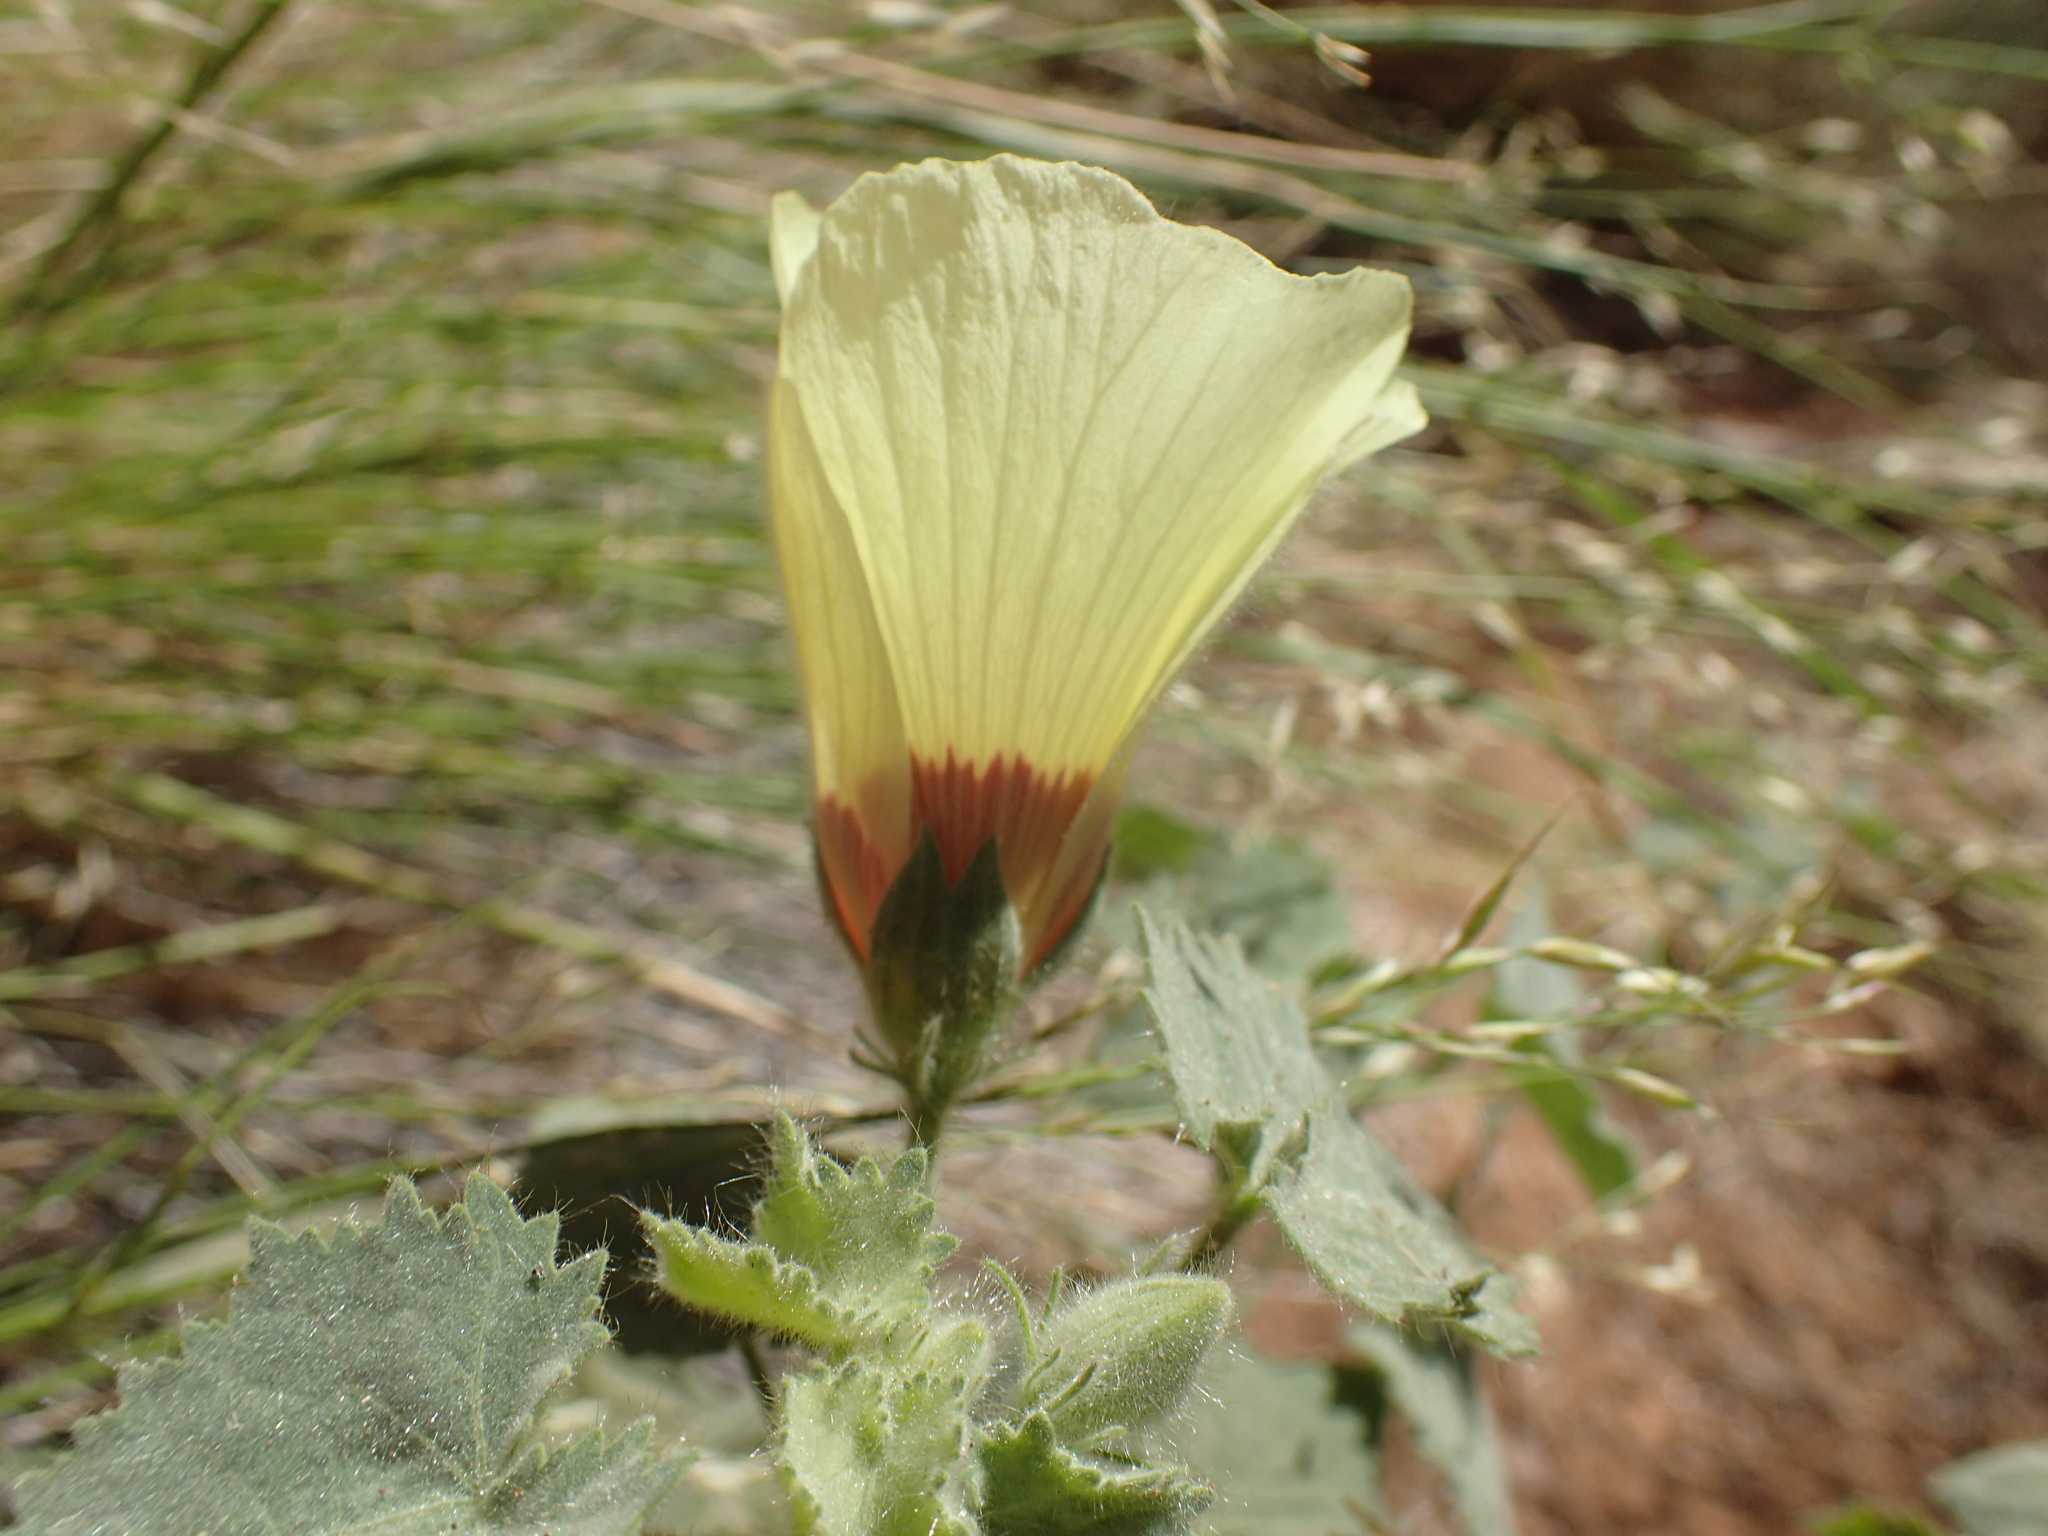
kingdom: Plantae
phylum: Tracheophyta
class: Magnoliopsida
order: Malvales
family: Malvaceae
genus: Hibiscus
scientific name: Hibiscus engleri
